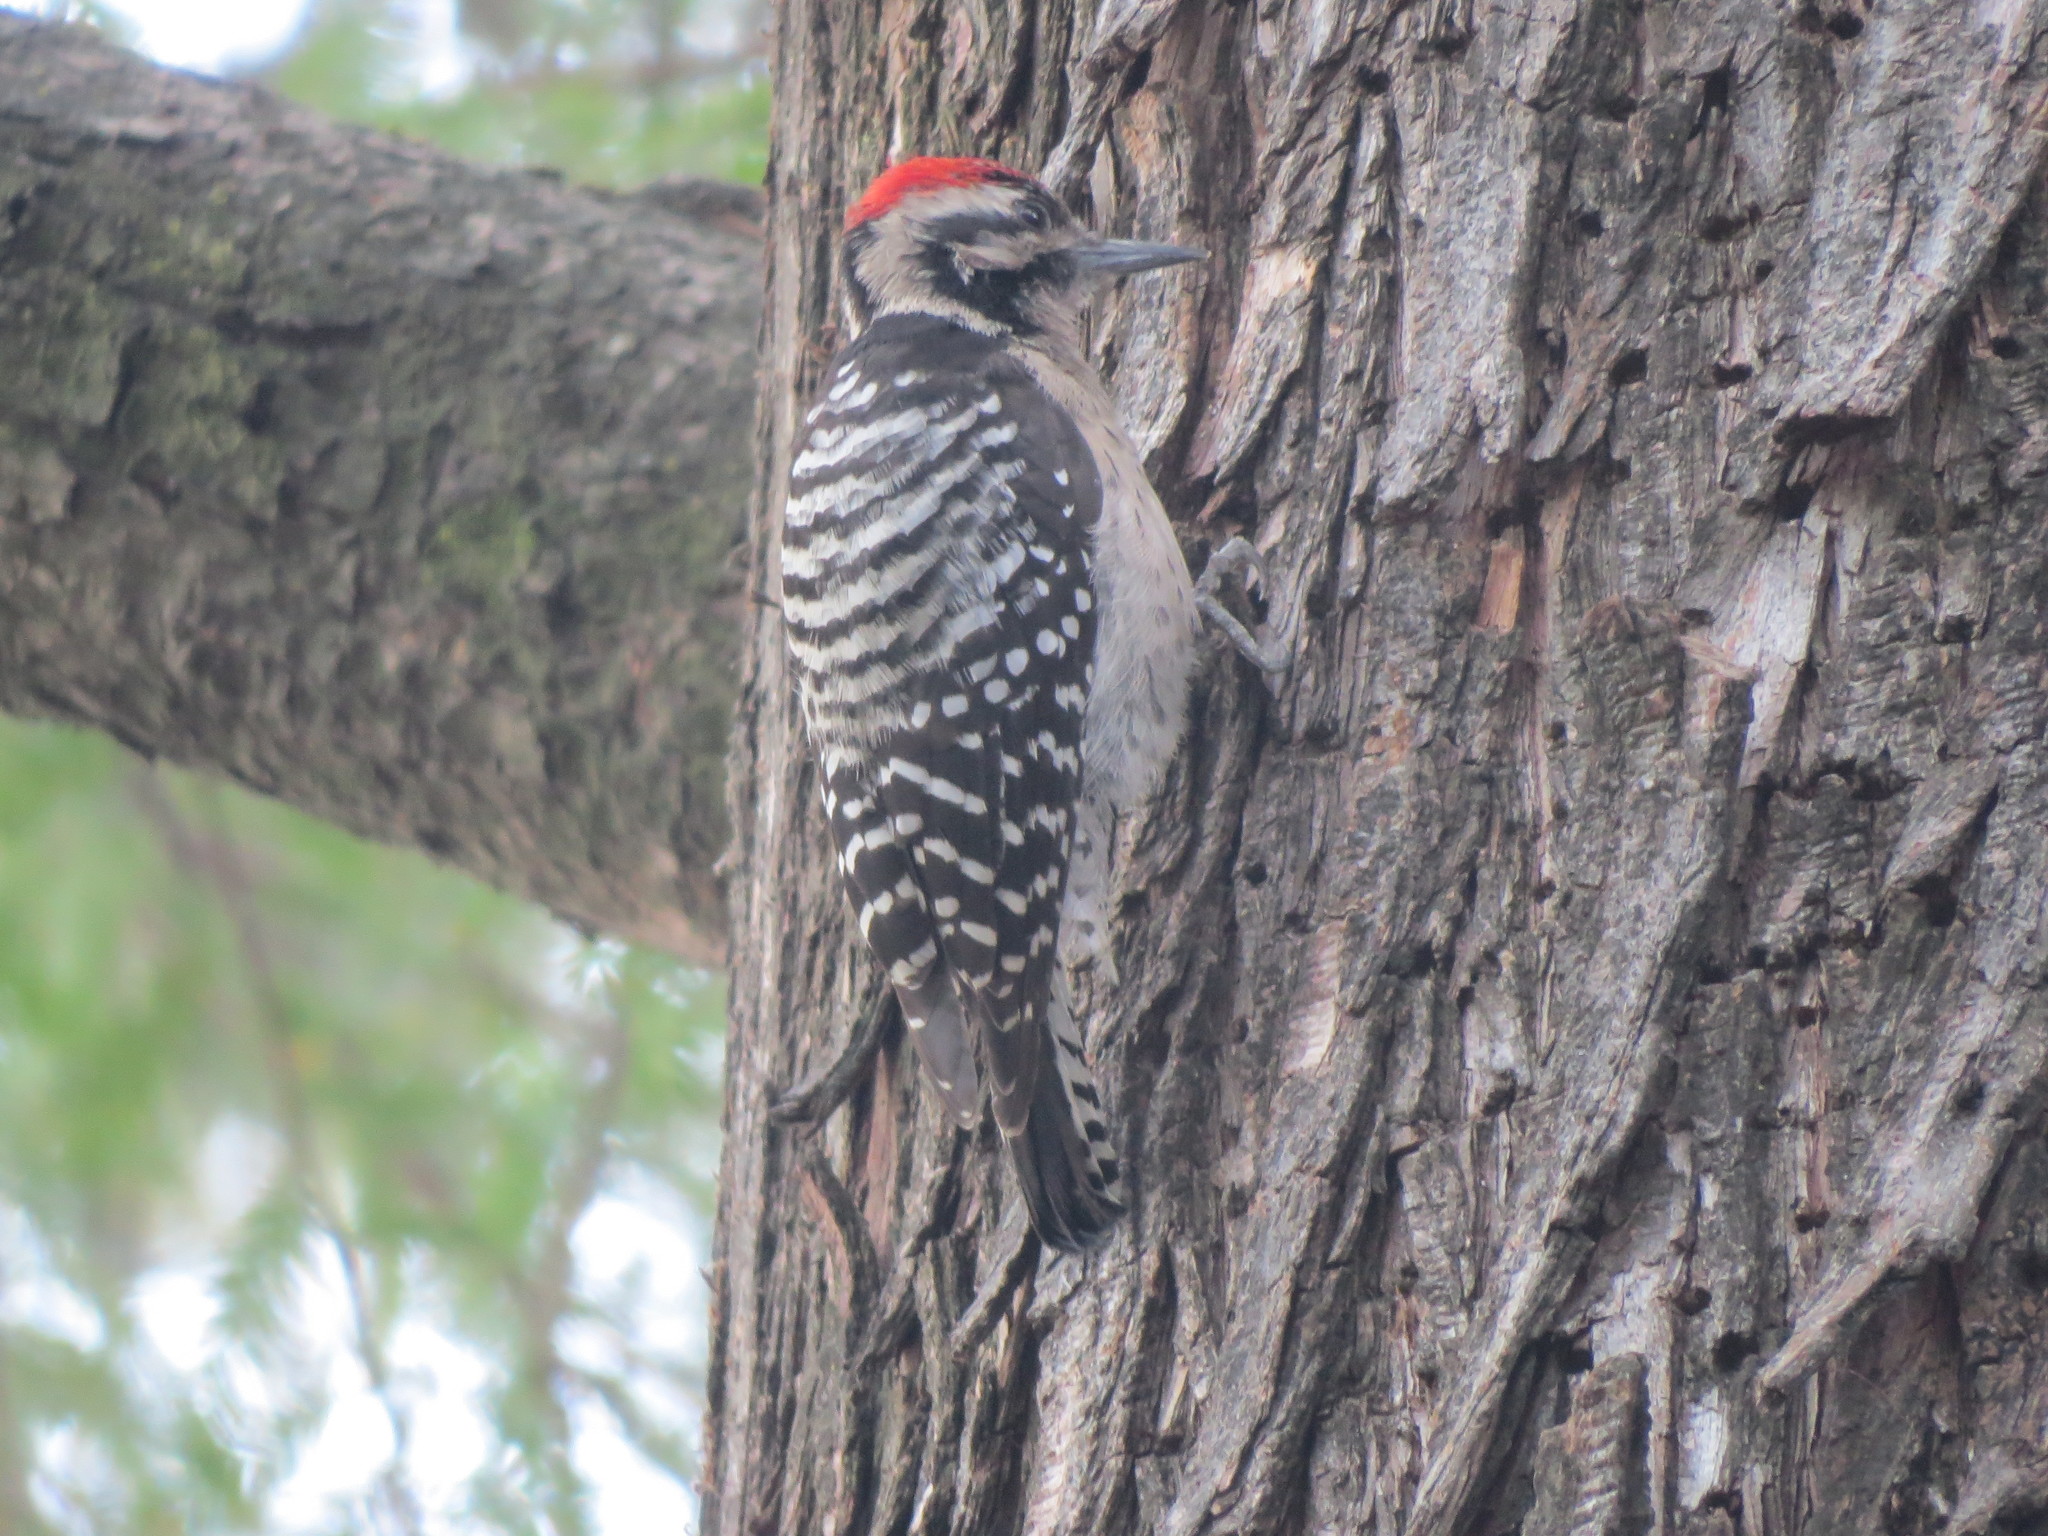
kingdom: Animalia
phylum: Chordata
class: Aves
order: Piciformes
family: Picidae
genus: Dryobates
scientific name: Dryobates scalaris
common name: Ladder-backed woodpecker
